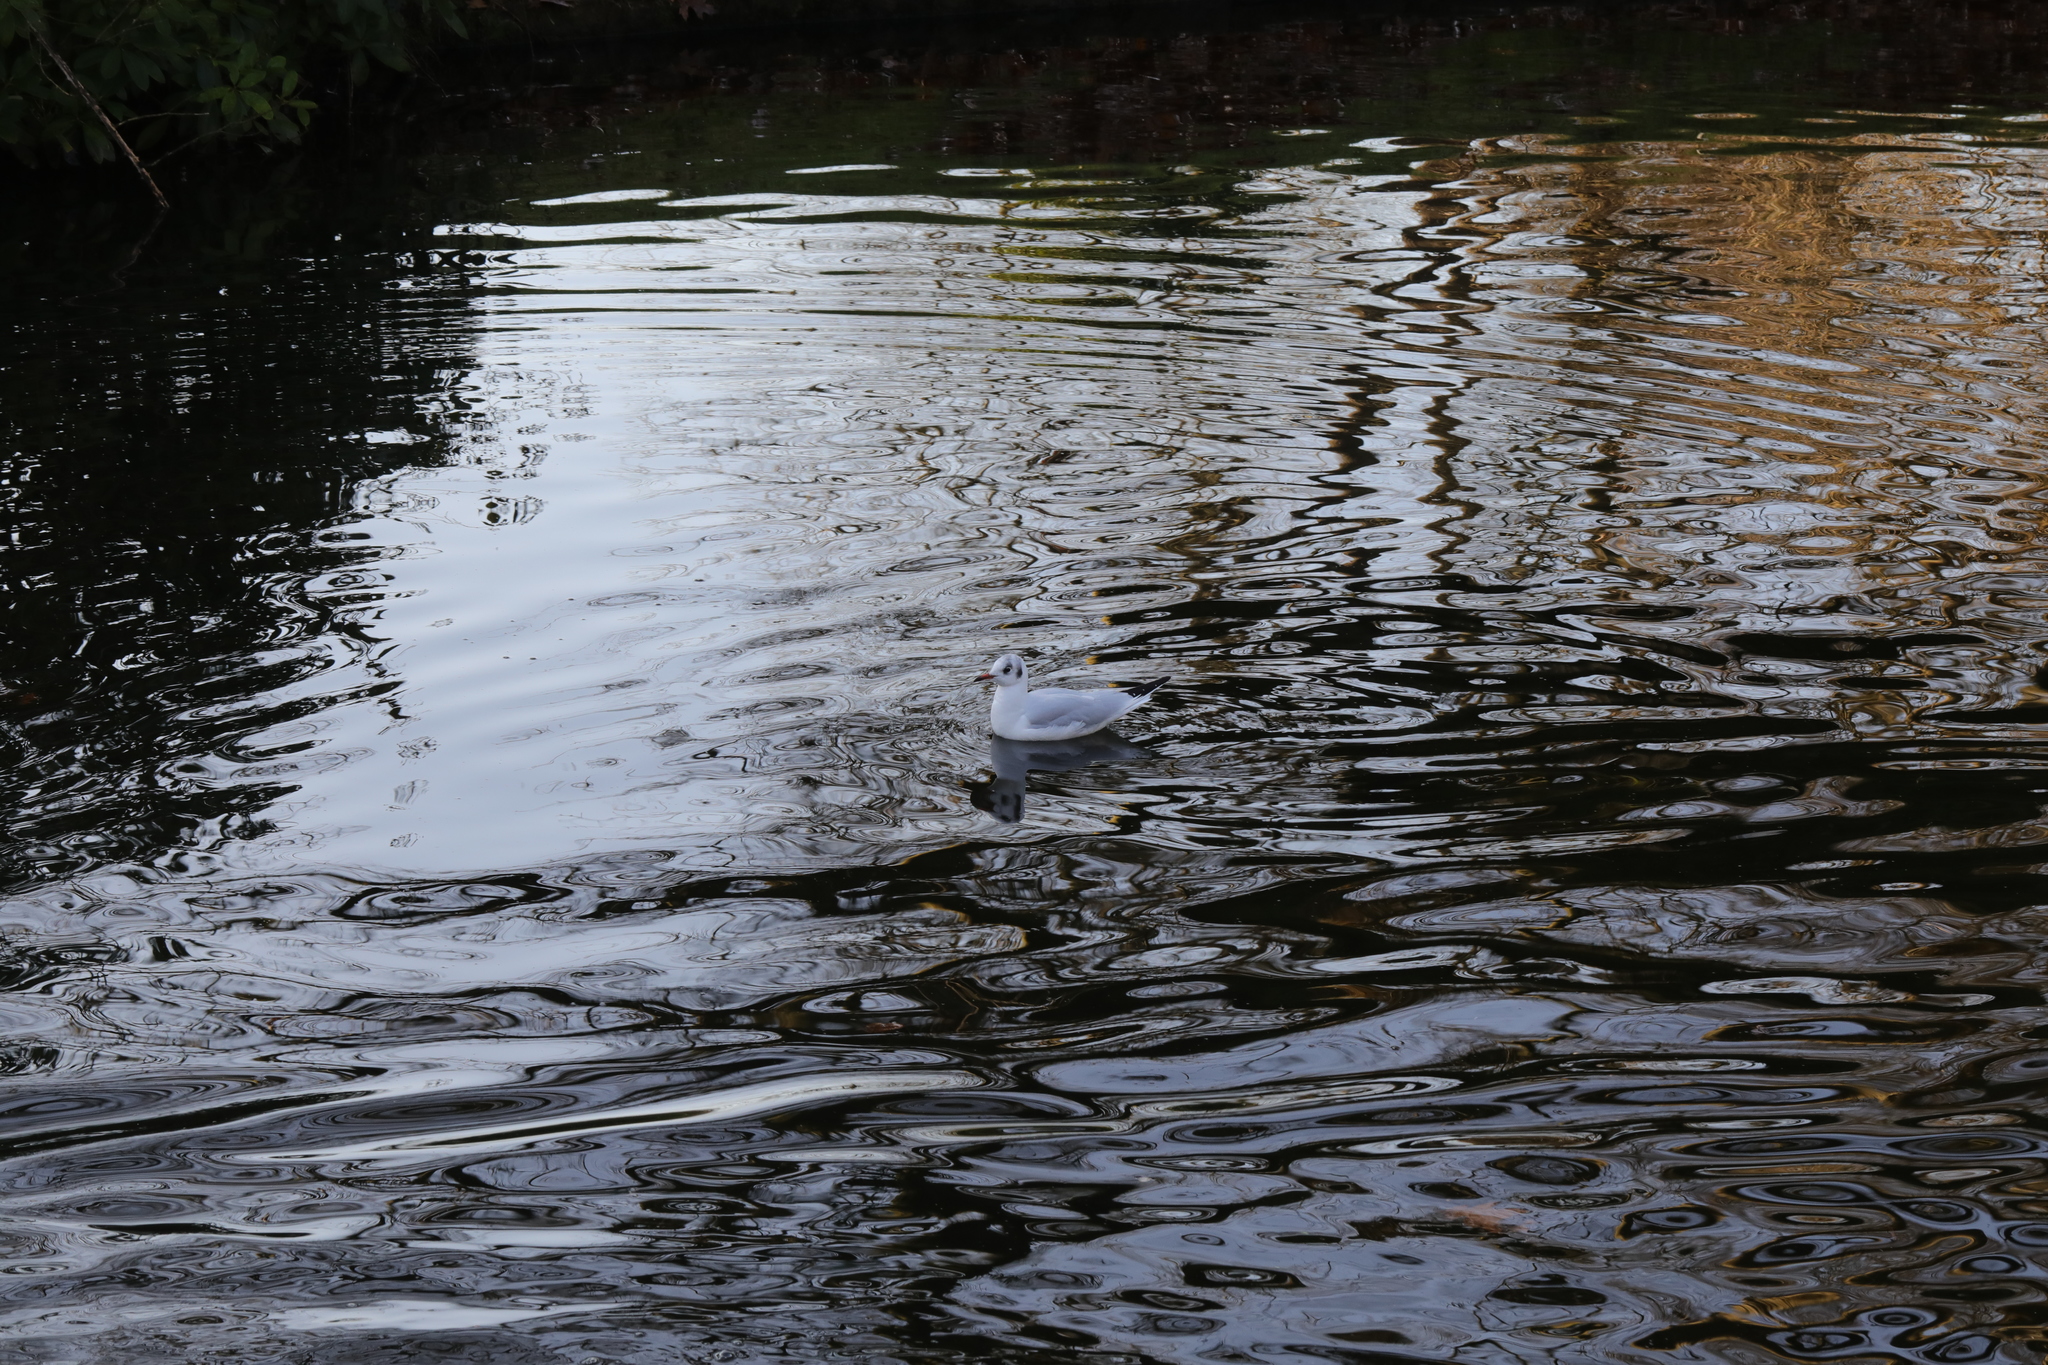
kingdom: Animalia
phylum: Chordata
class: Aves
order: Charadriiformes
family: Laridae
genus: Chroicocephalus
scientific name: Chroicocephalus ridibundus
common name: Black-headed gull
